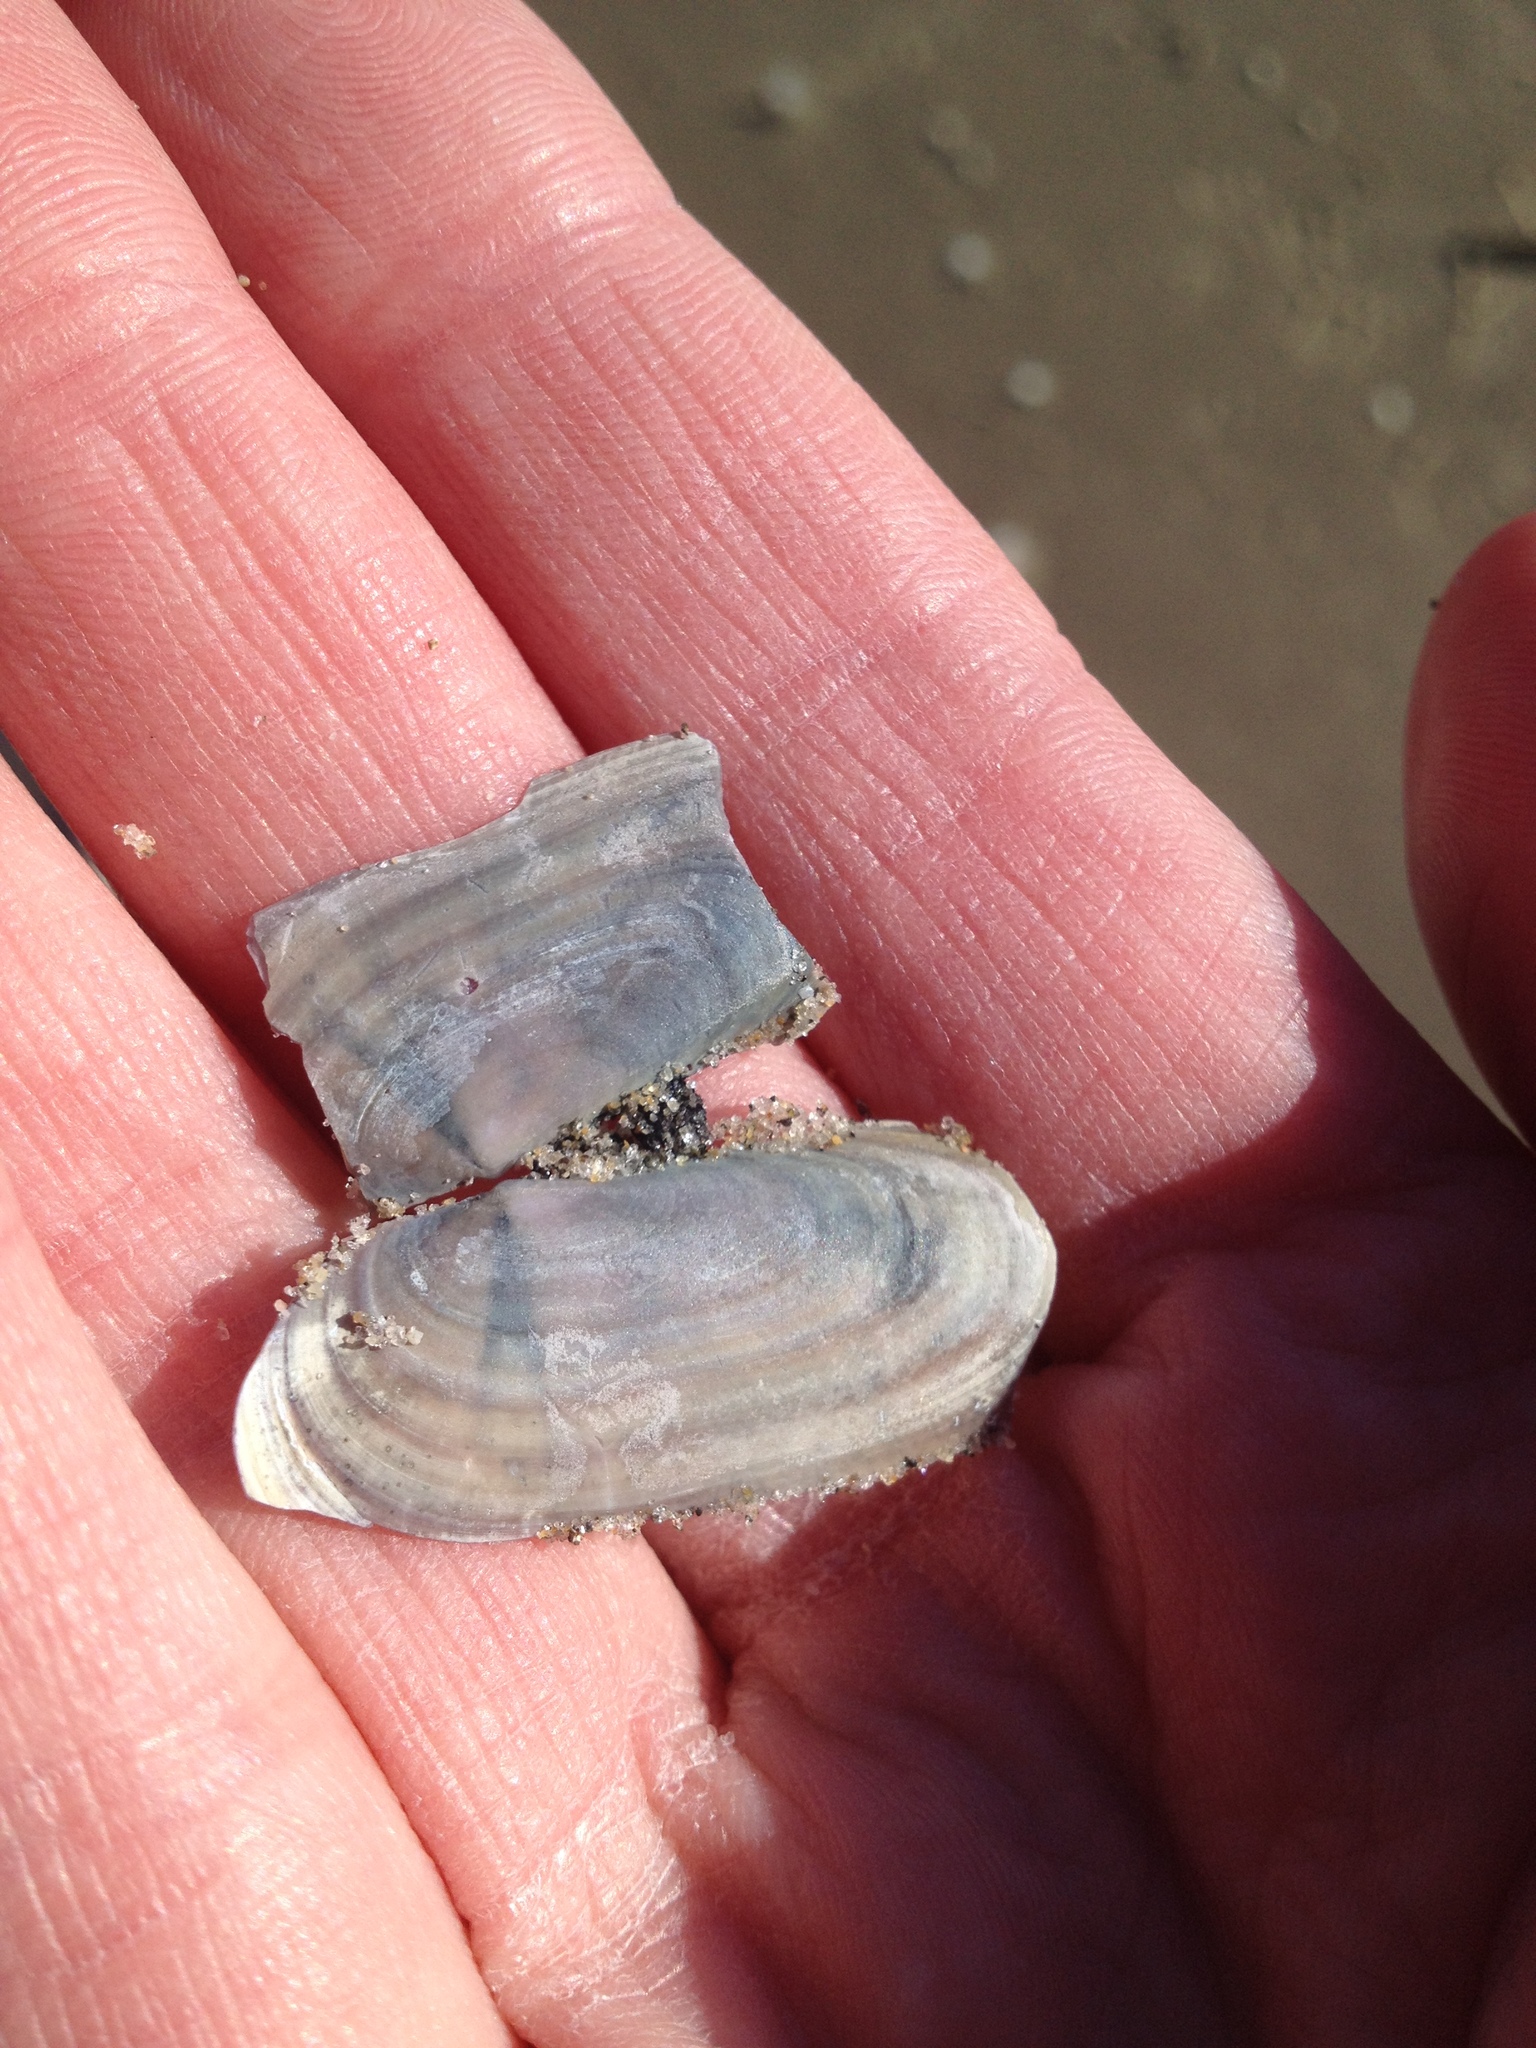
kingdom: Animalia
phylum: Mollusca
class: Bivalvia
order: Adapedonta
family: Pharidae
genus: Siliqua
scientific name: Siliqua costata
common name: Atlantic razor
